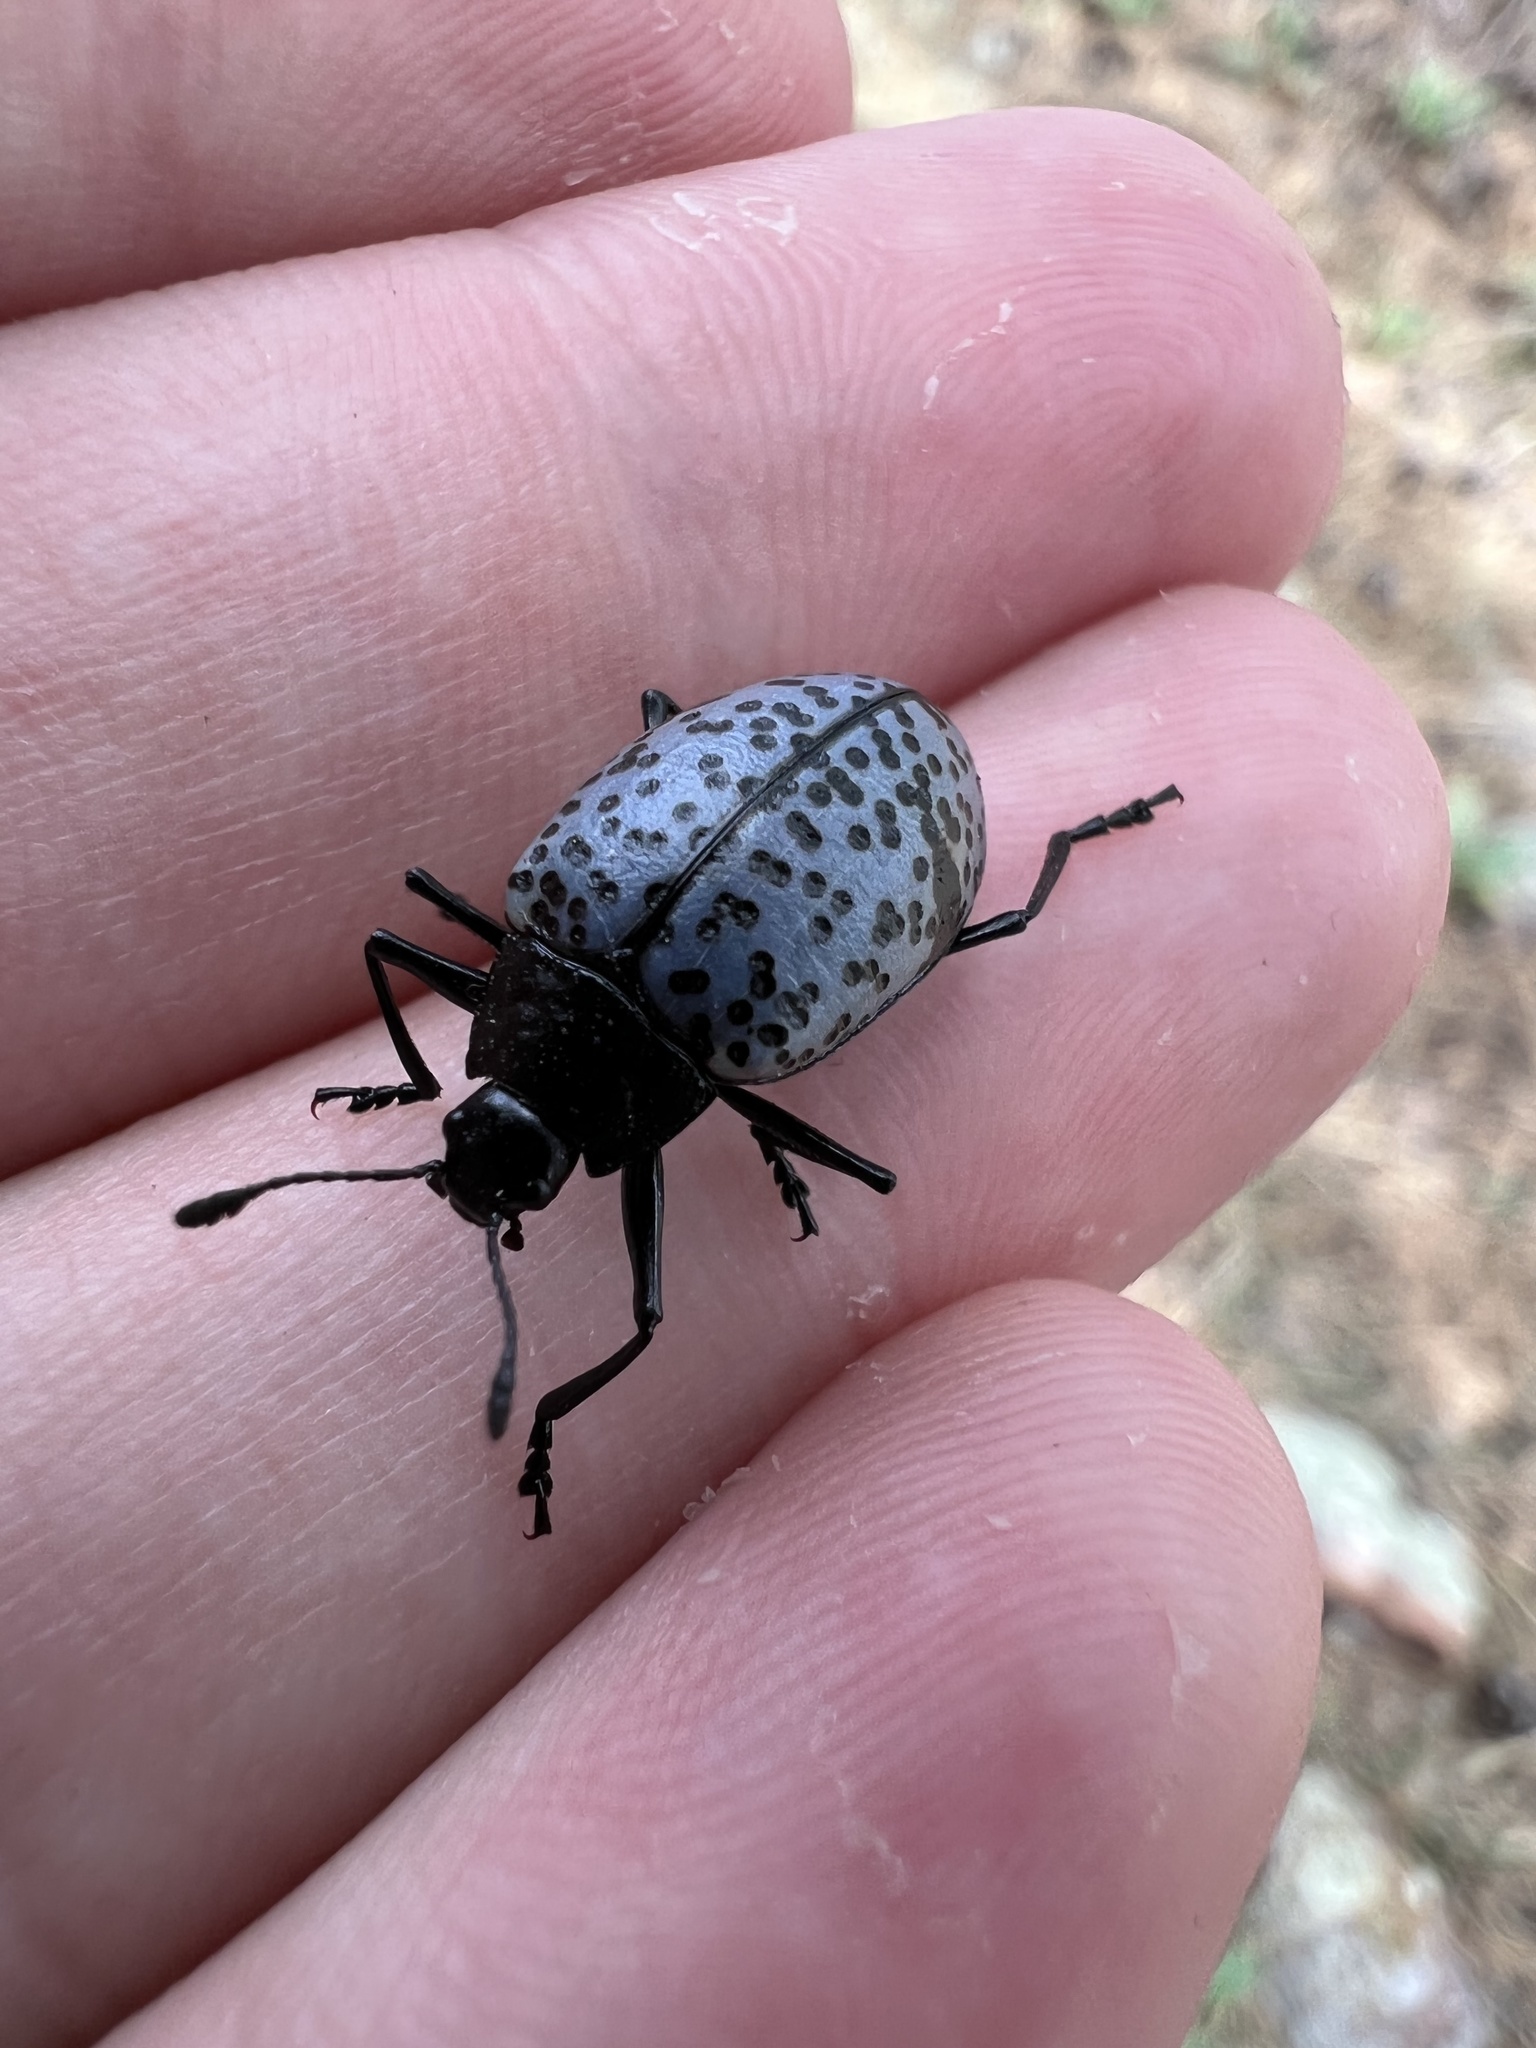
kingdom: Animalia
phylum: Arthropoda
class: Insecta
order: Coleoptera
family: Erotylidae
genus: Gibbifer
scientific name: Gibbifer californicus
